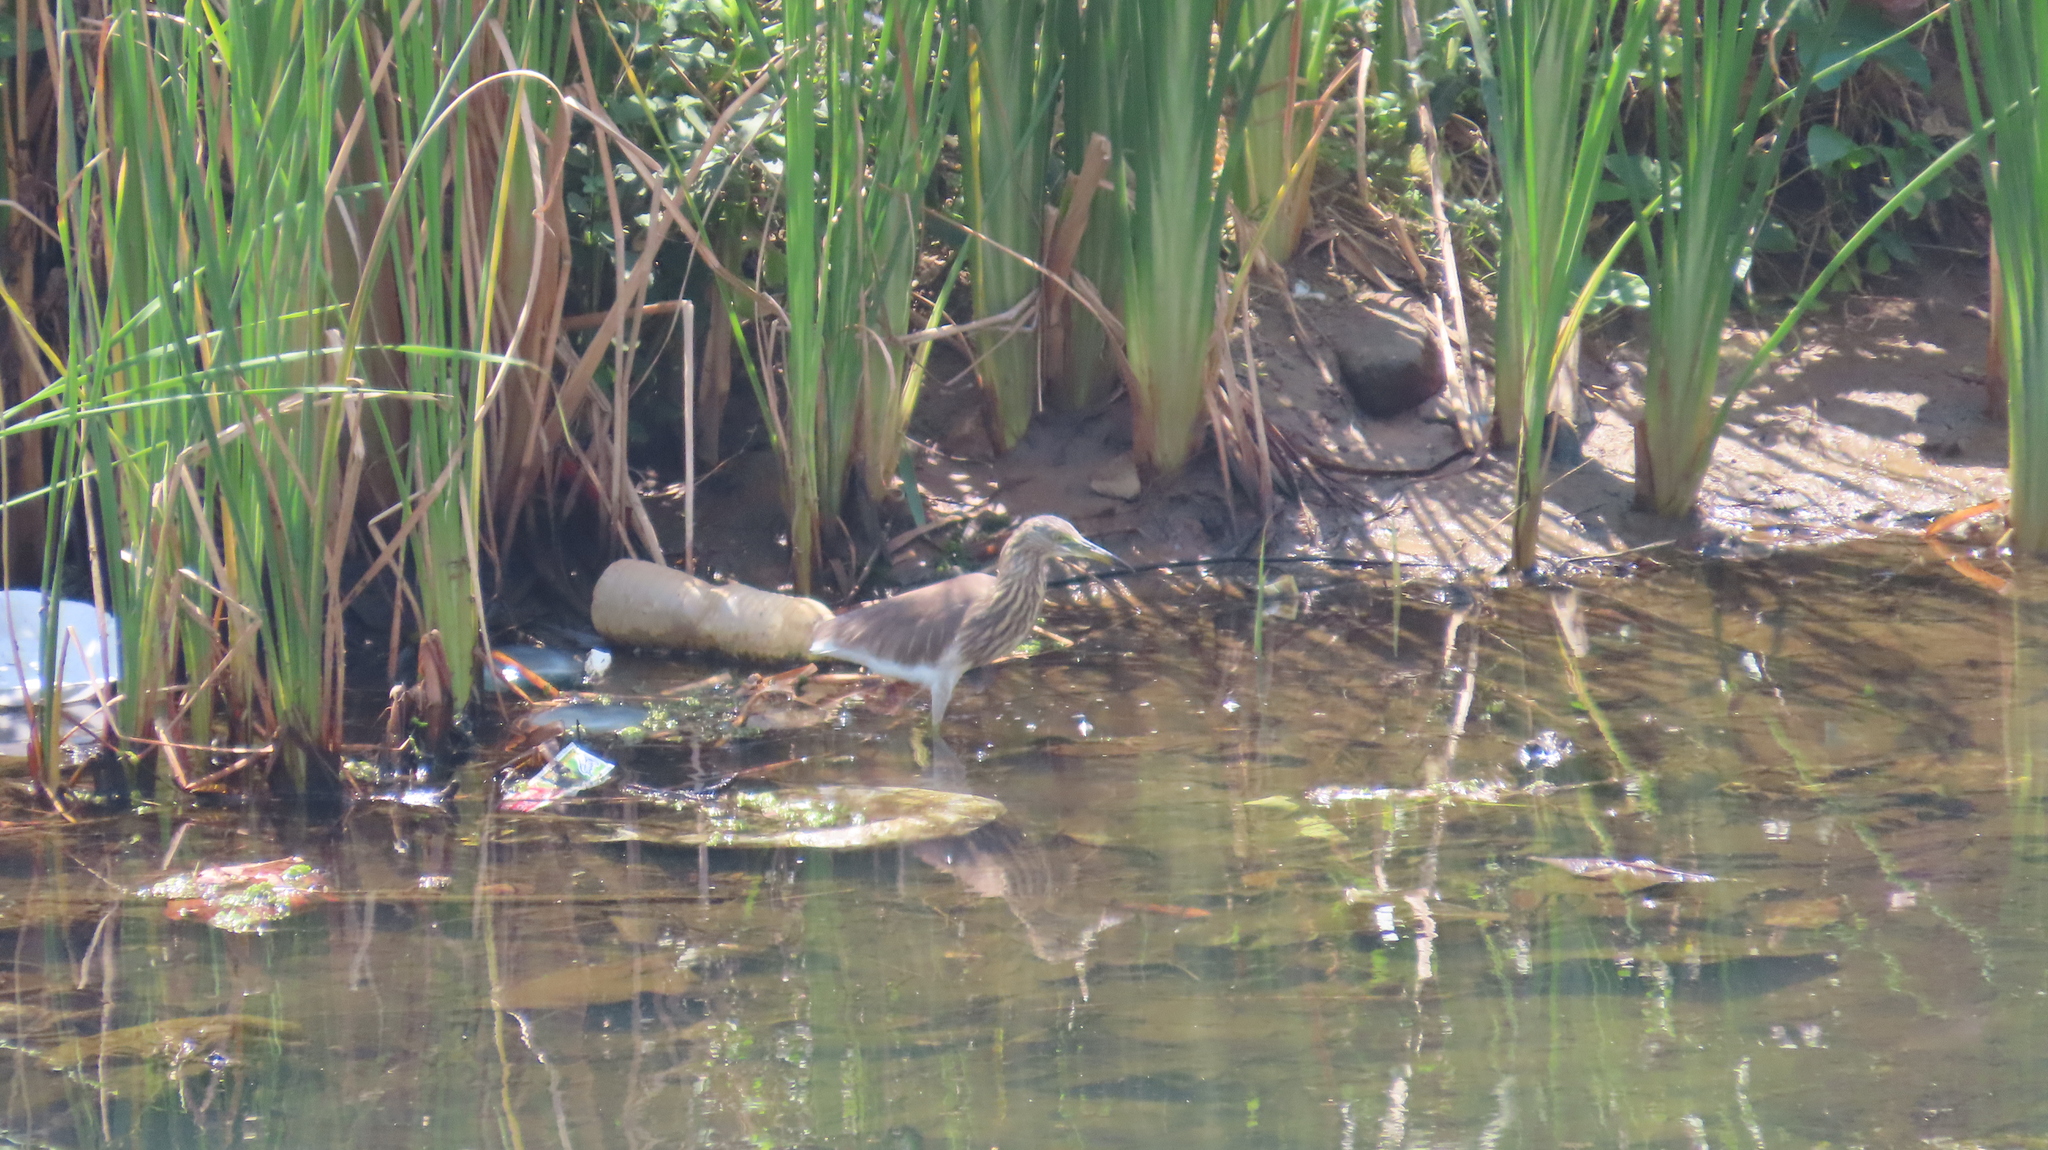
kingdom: Animalia
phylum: Chordata
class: Aves
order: Pelecaniformes
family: Ardeidae
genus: Ardeola
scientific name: Ardeola grayii
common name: Indian pond heron
